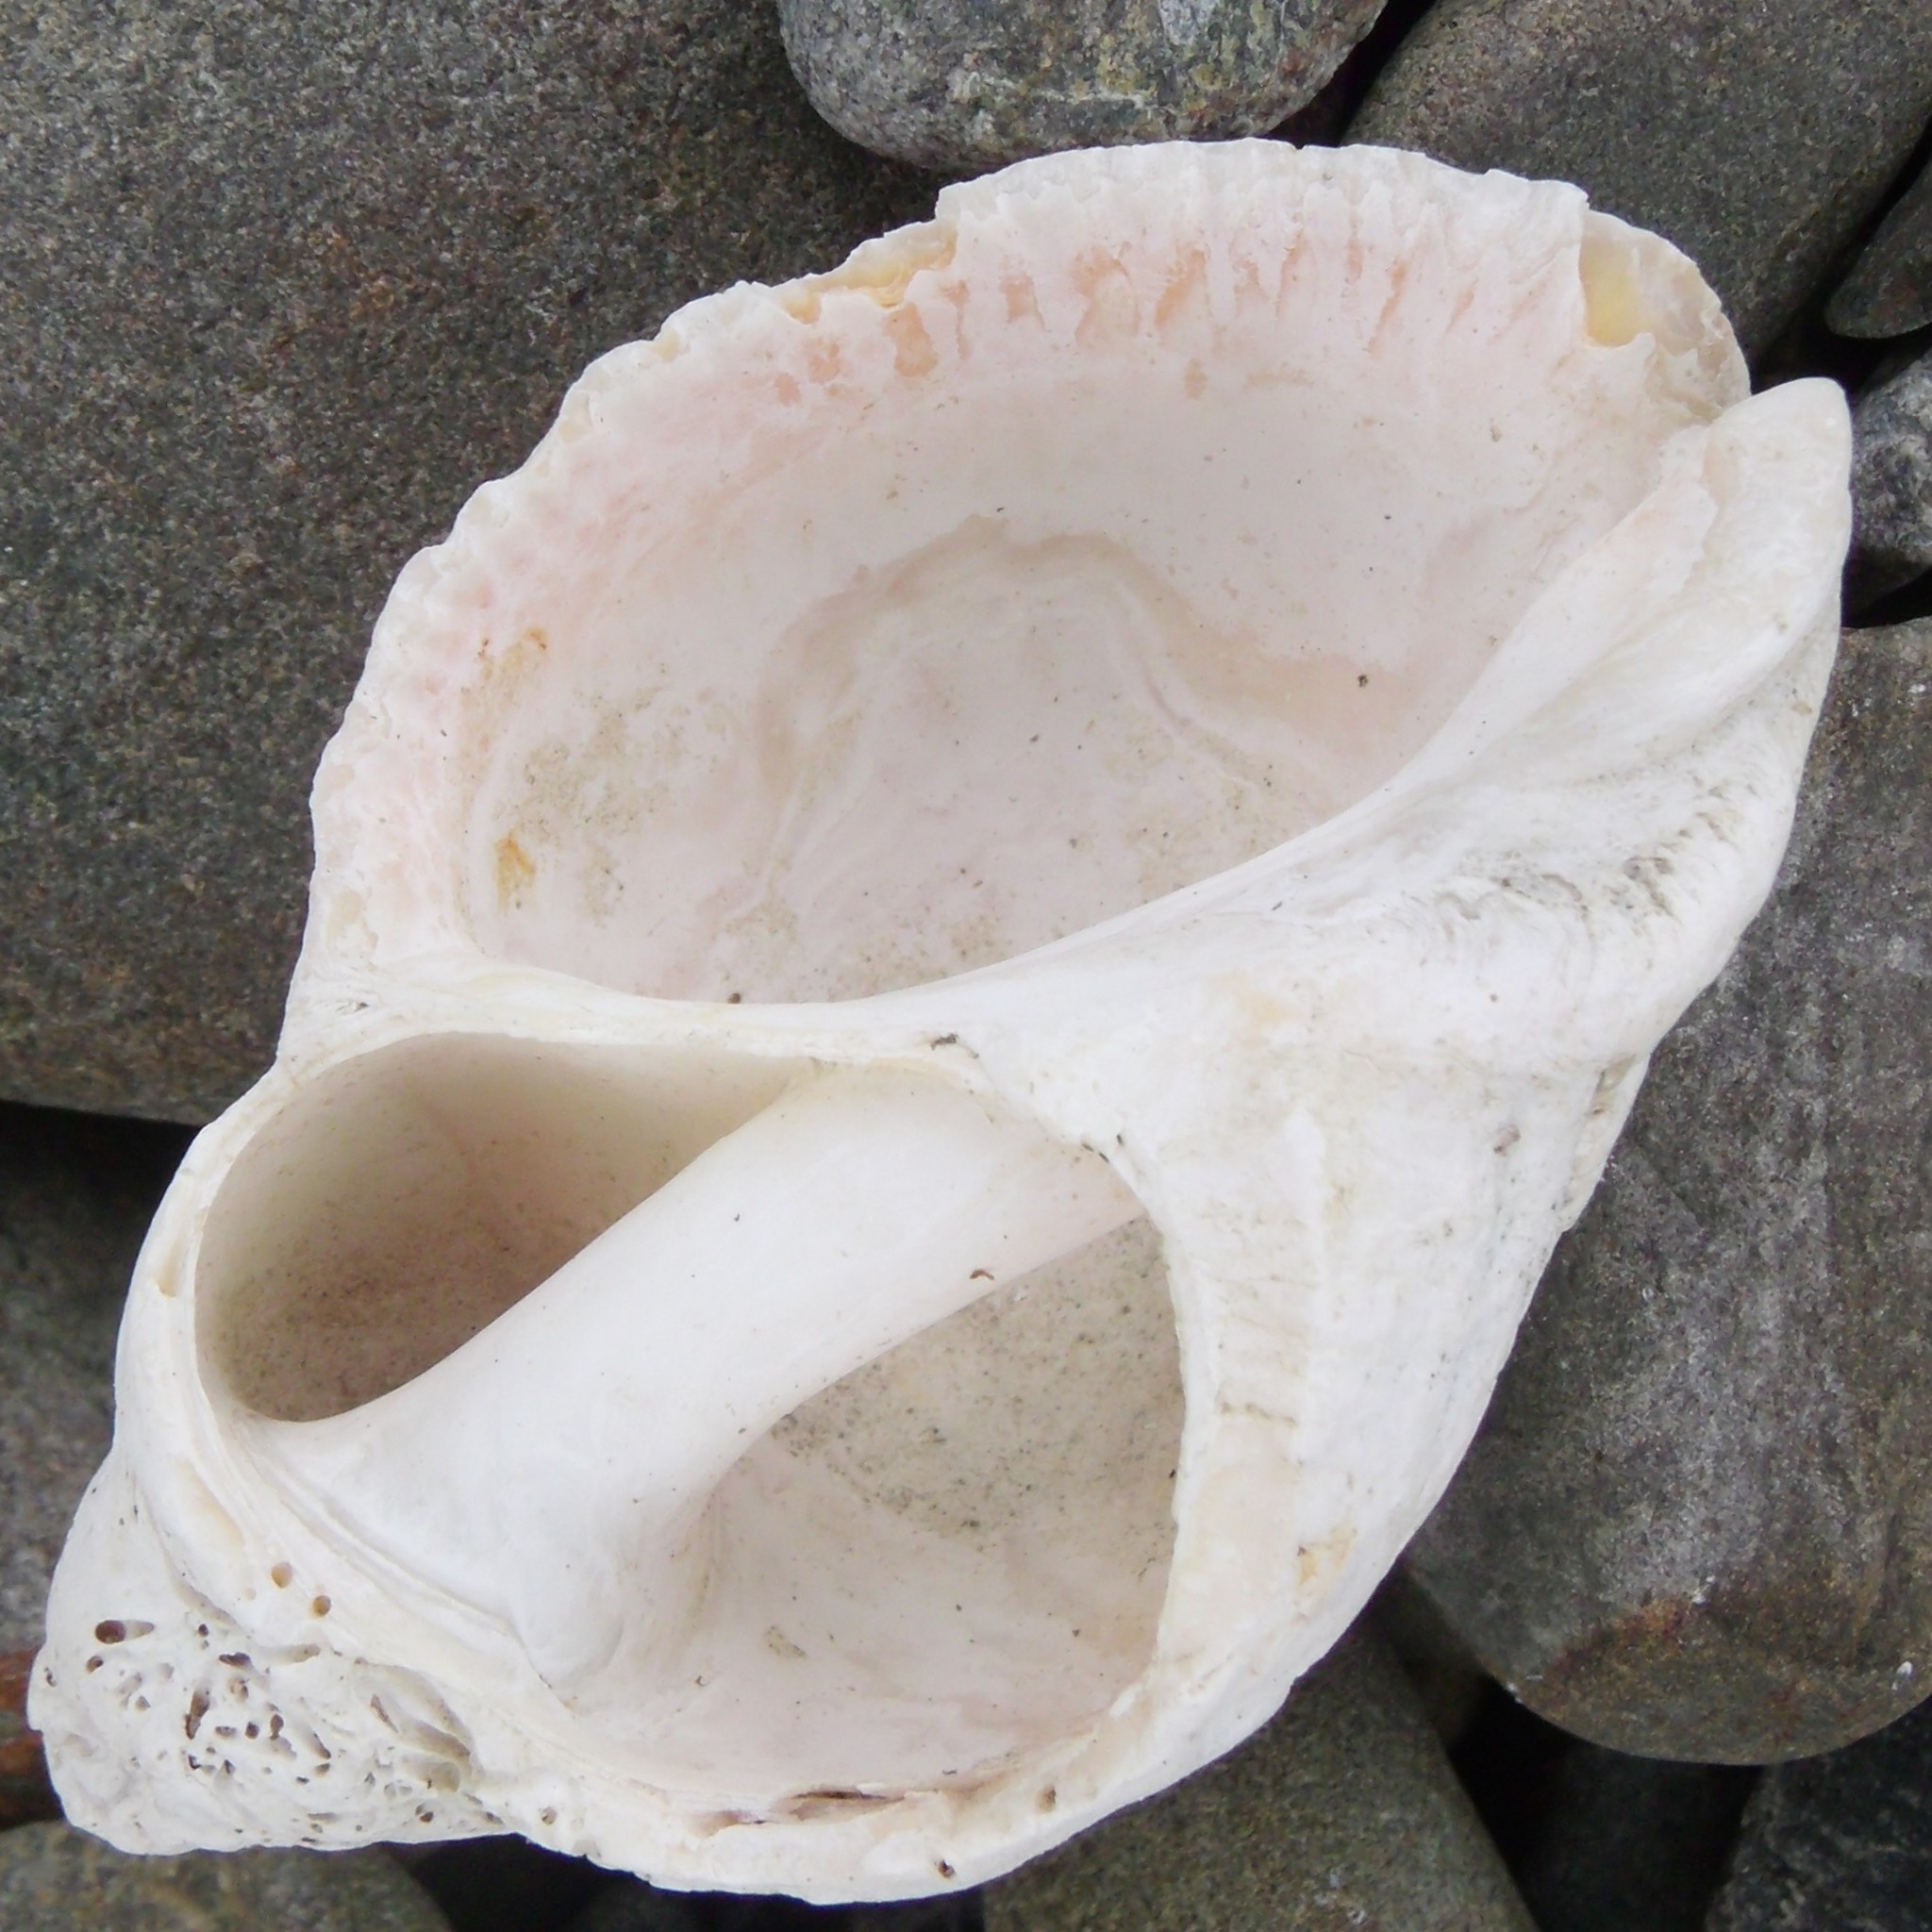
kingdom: Animalia
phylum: Mollusca
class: Gastropoda
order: Neogastropoda
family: Muricidae
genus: Haustrum
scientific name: Haustrum lacunosum
